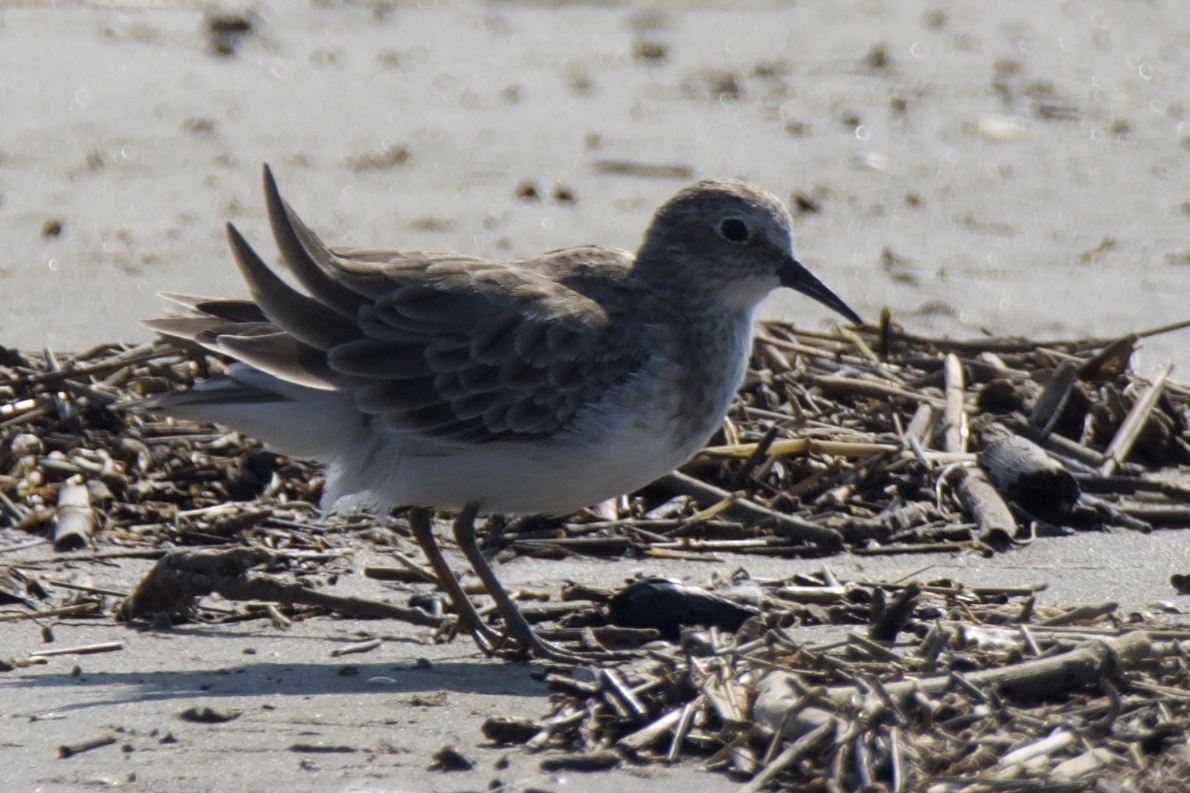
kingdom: Animalia
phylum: Chordata
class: Aves
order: Charadriiformes
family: Scolopacidae
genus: Calidris
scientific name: Calidris minutilla
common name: Least sandpiper
